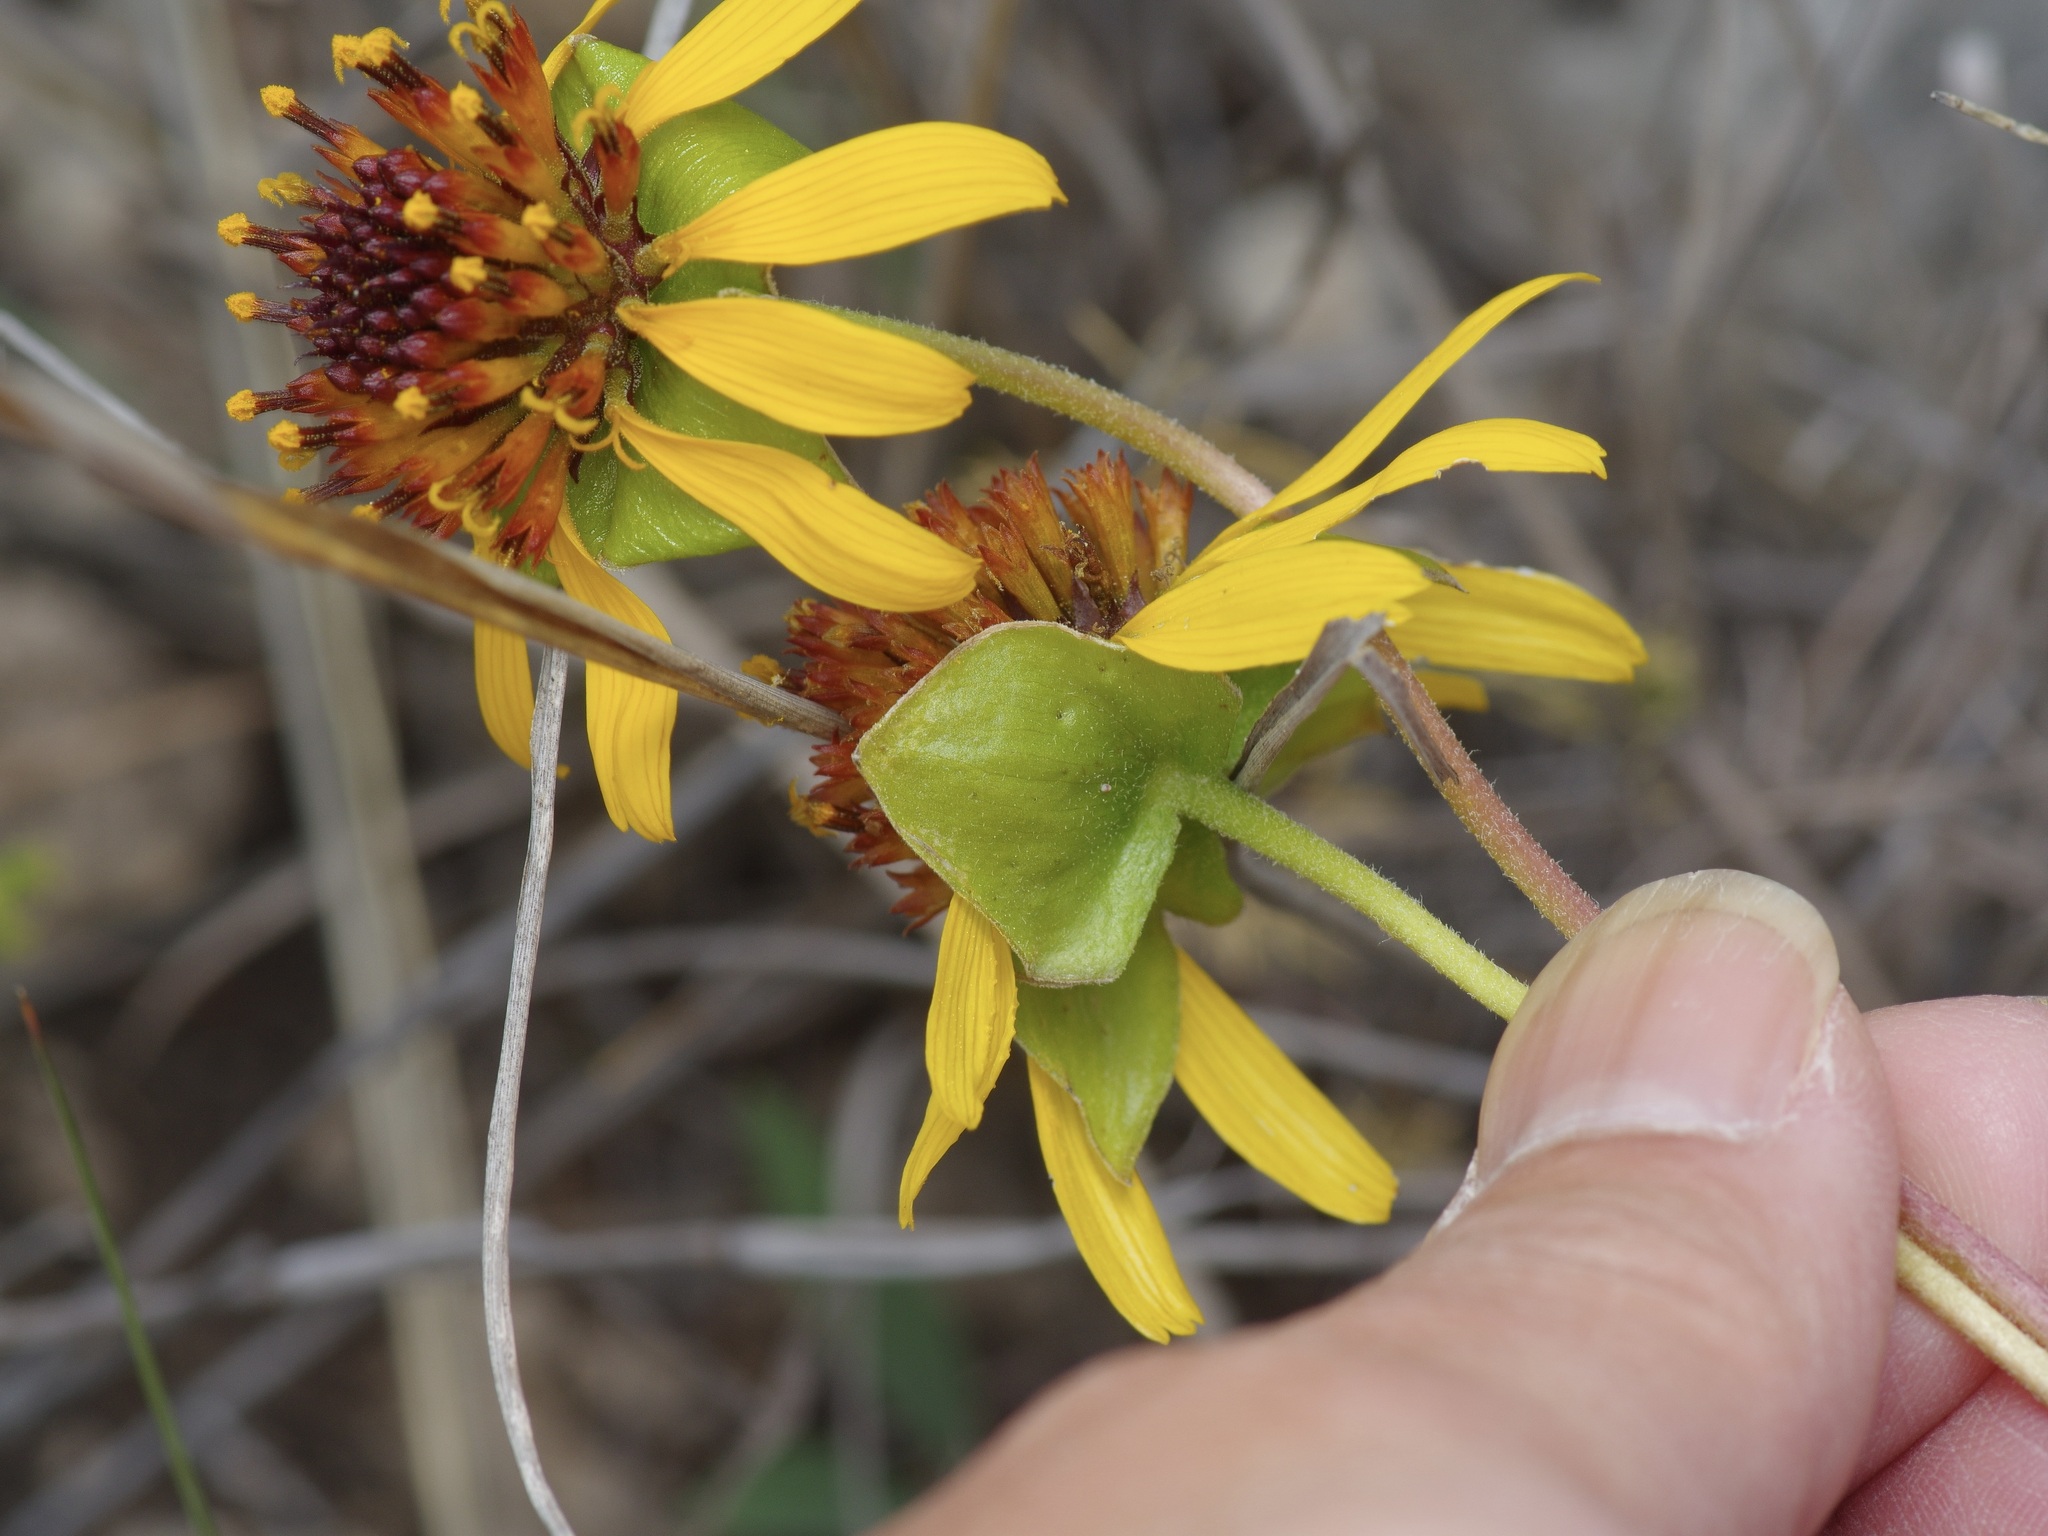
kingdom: Plantae
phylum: Tracheophyta
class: Magnoliopsida
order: Asterales
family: Asteraceae
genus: Tetragonotheca
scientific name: Tetragonotheca texana
